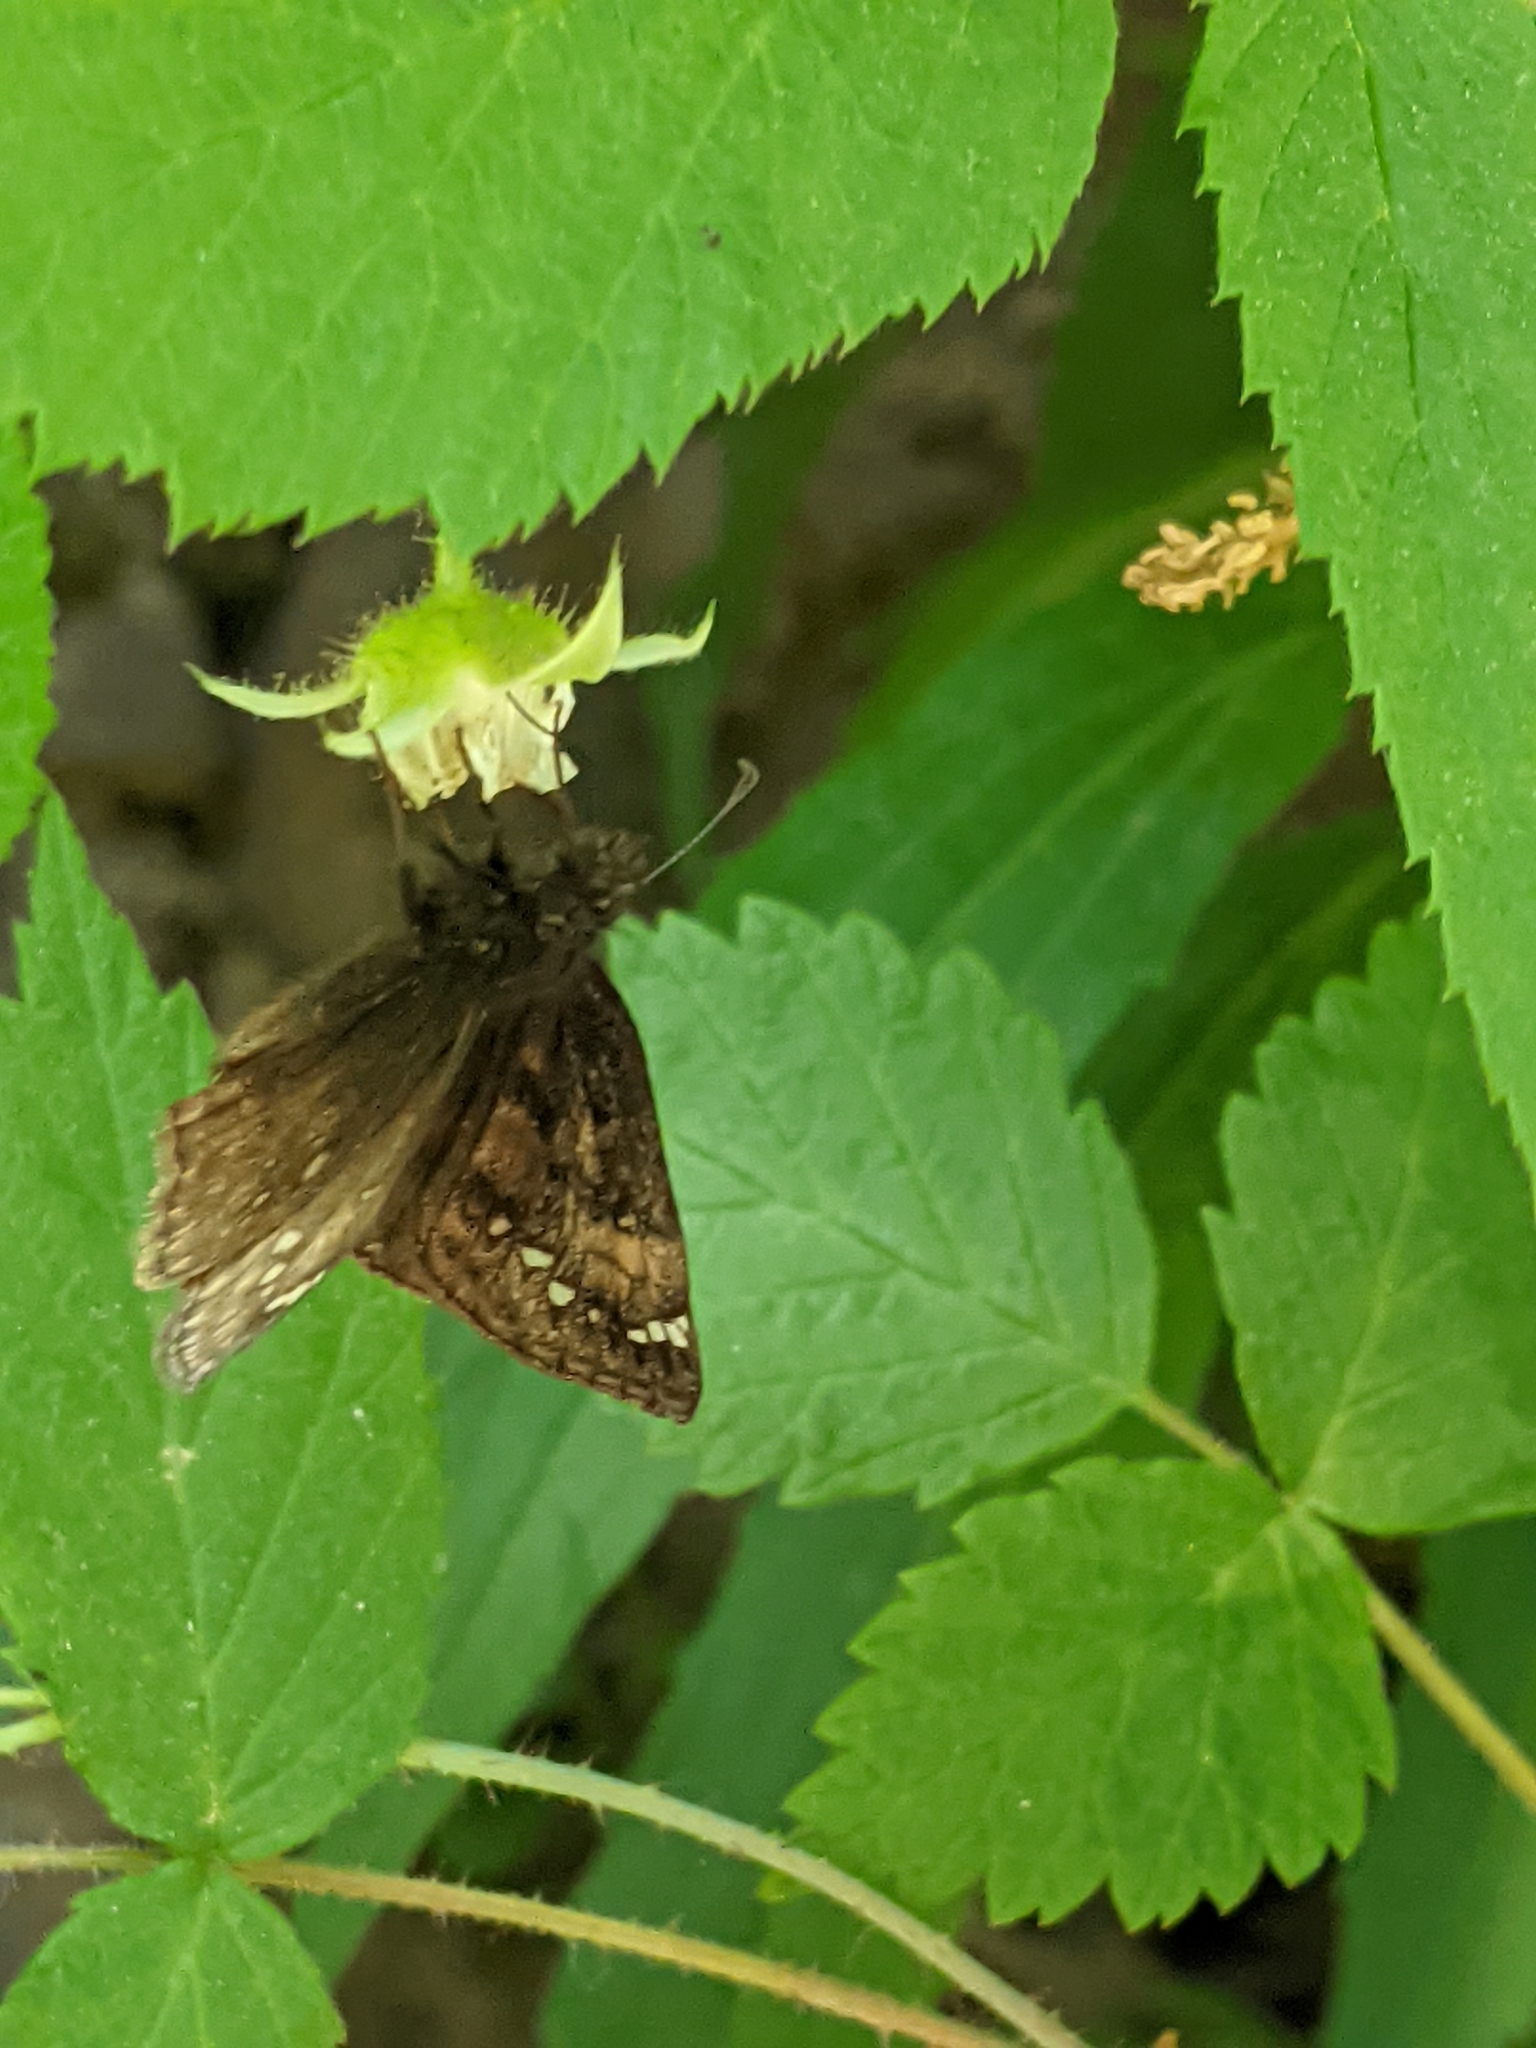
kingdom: Animalia
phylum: Arthropoda
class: Insecta
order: Lepidoptera
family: Hesperiidae
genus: Erynnis
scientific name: Erynnis juvenalis
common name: Juvenal's duskywing
